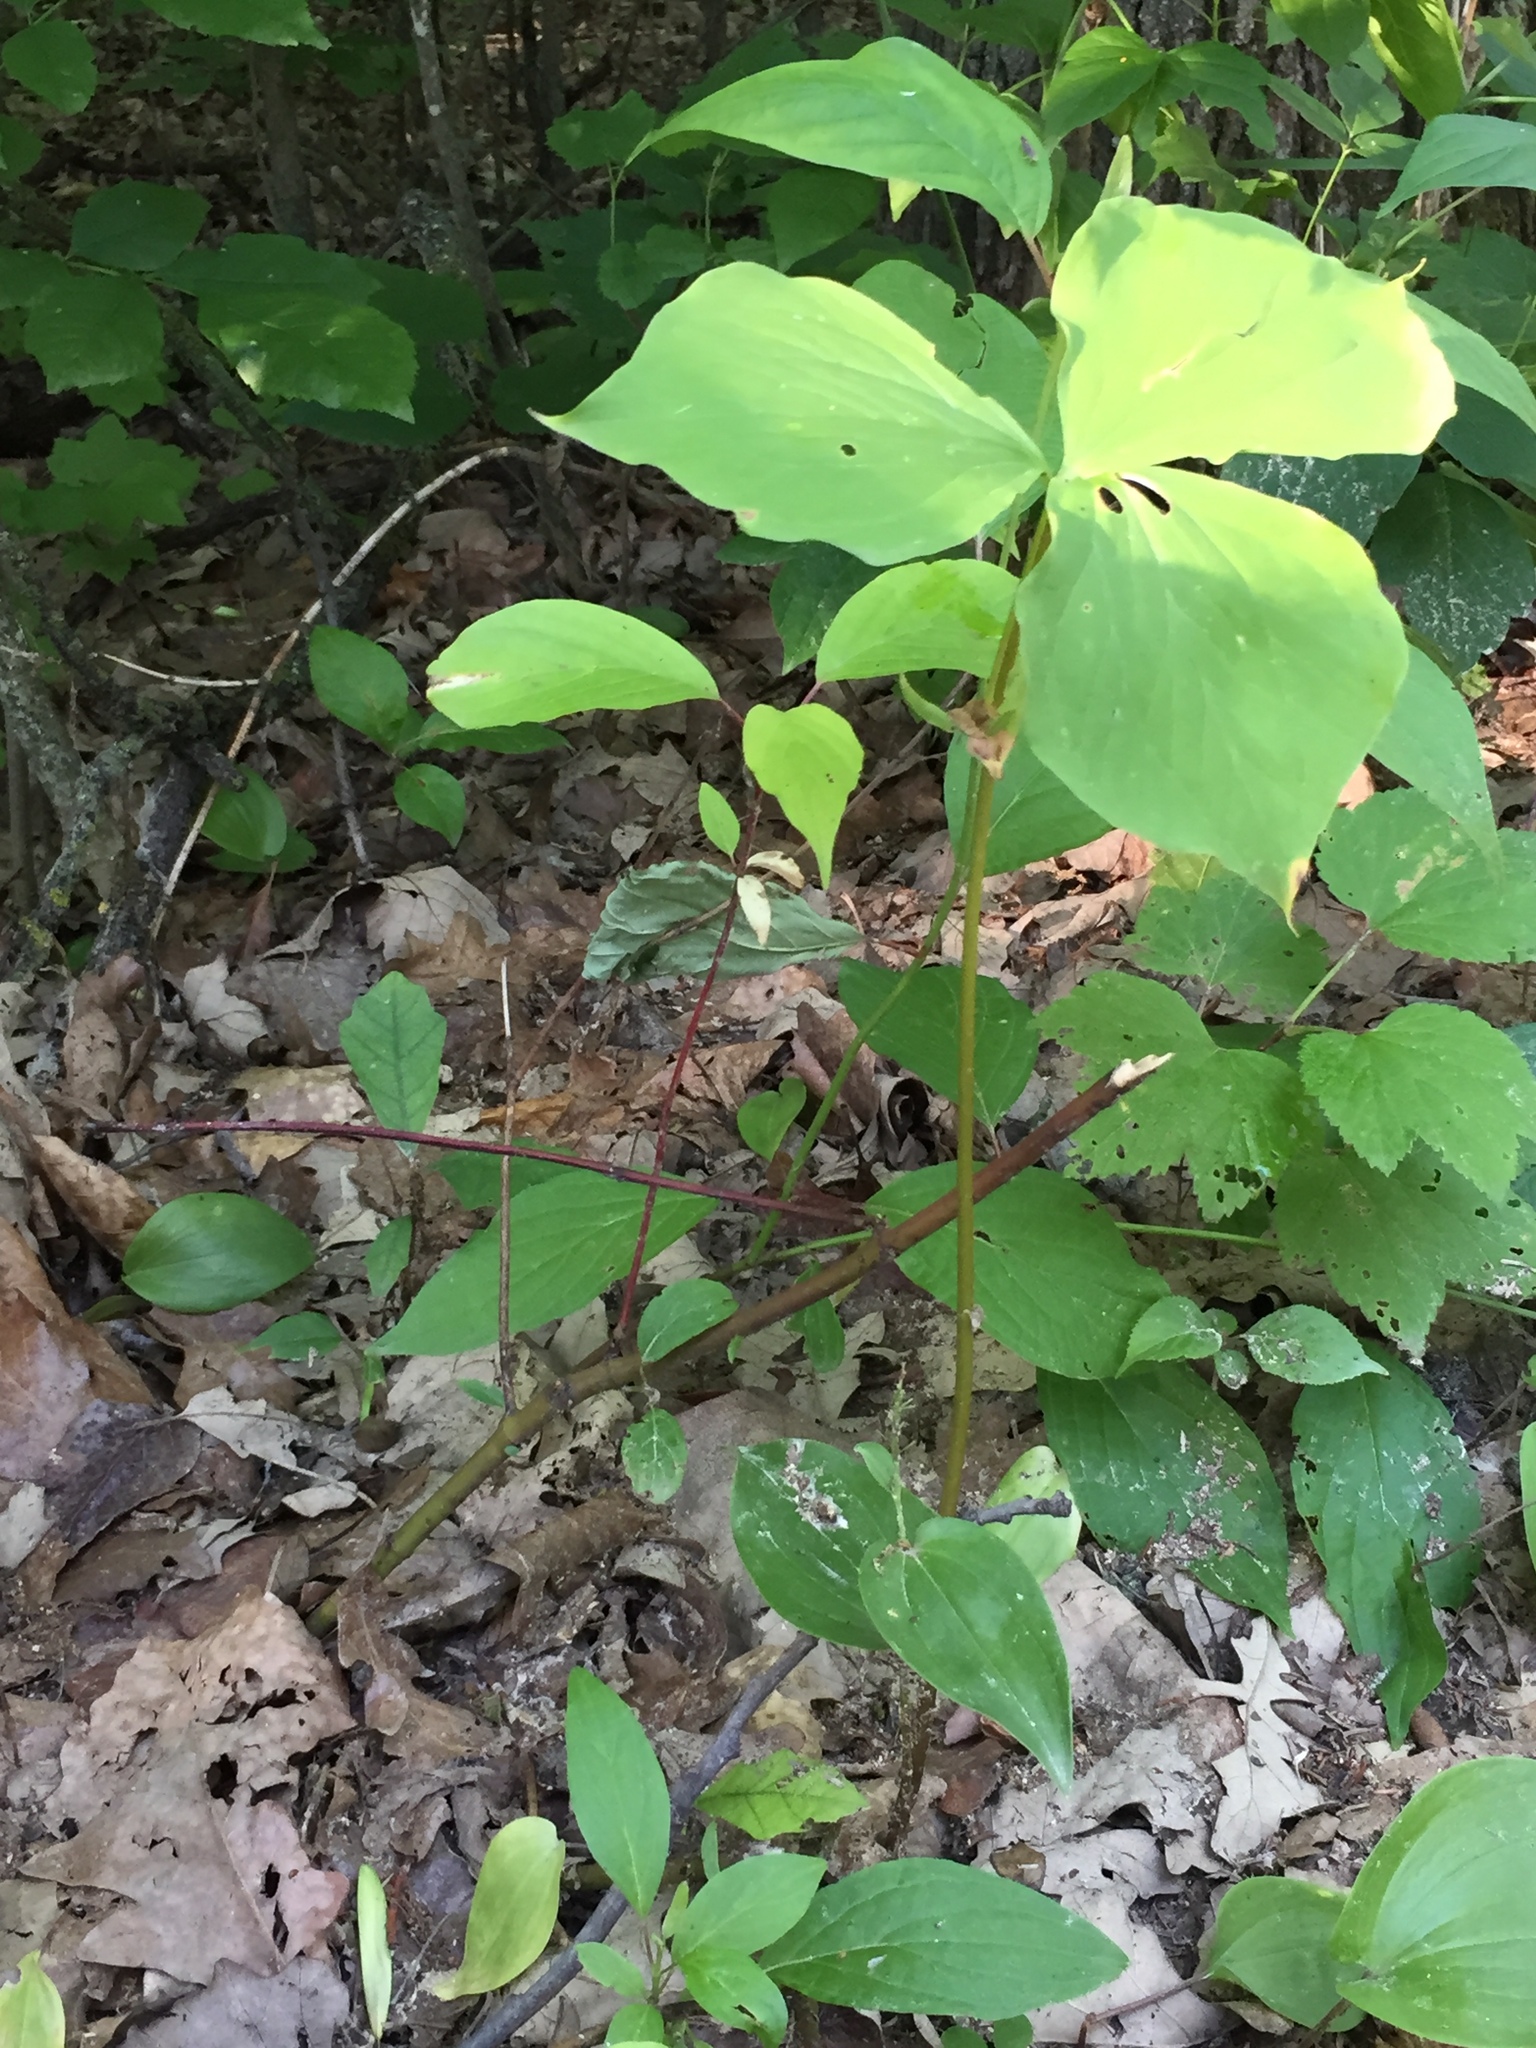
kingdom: Plantae
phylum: Tracheophyta
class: Liliopsida
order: Liliales
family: Melanthiaceae
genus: Trillium
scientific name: Trillium cernuum
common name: Nodding trillium
